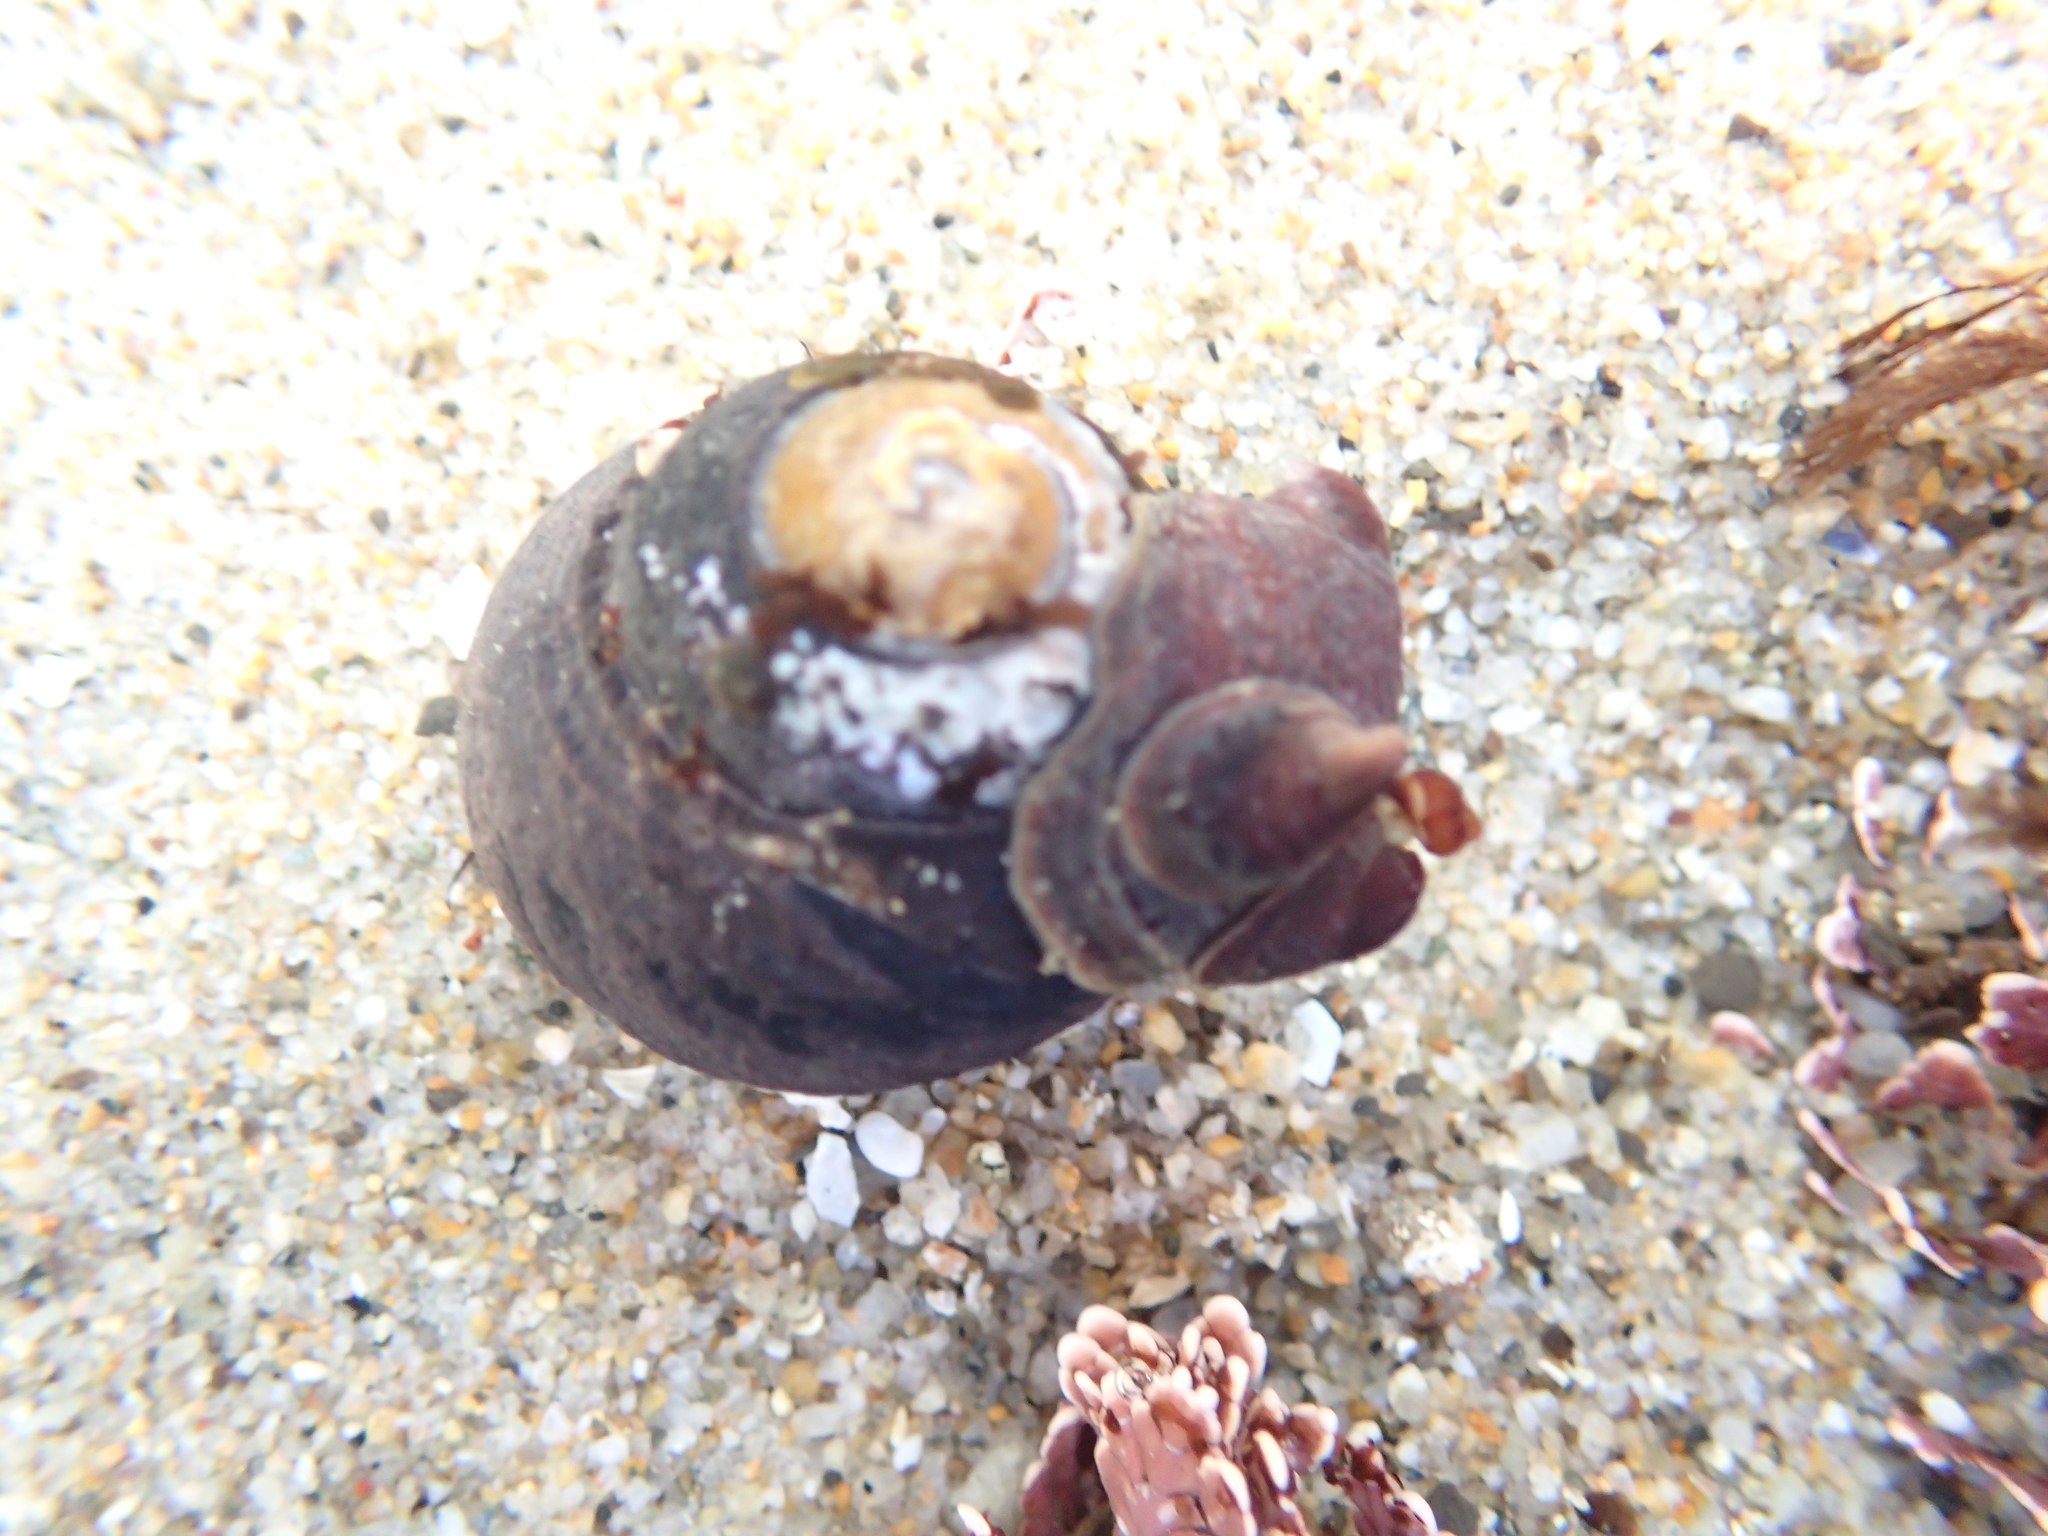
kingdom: Animalia
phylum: Mollusca
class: Gastropoda
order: Trochida
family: Tegulidae
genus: Tegula
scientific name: Tegula funebralis
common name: Black tegula
